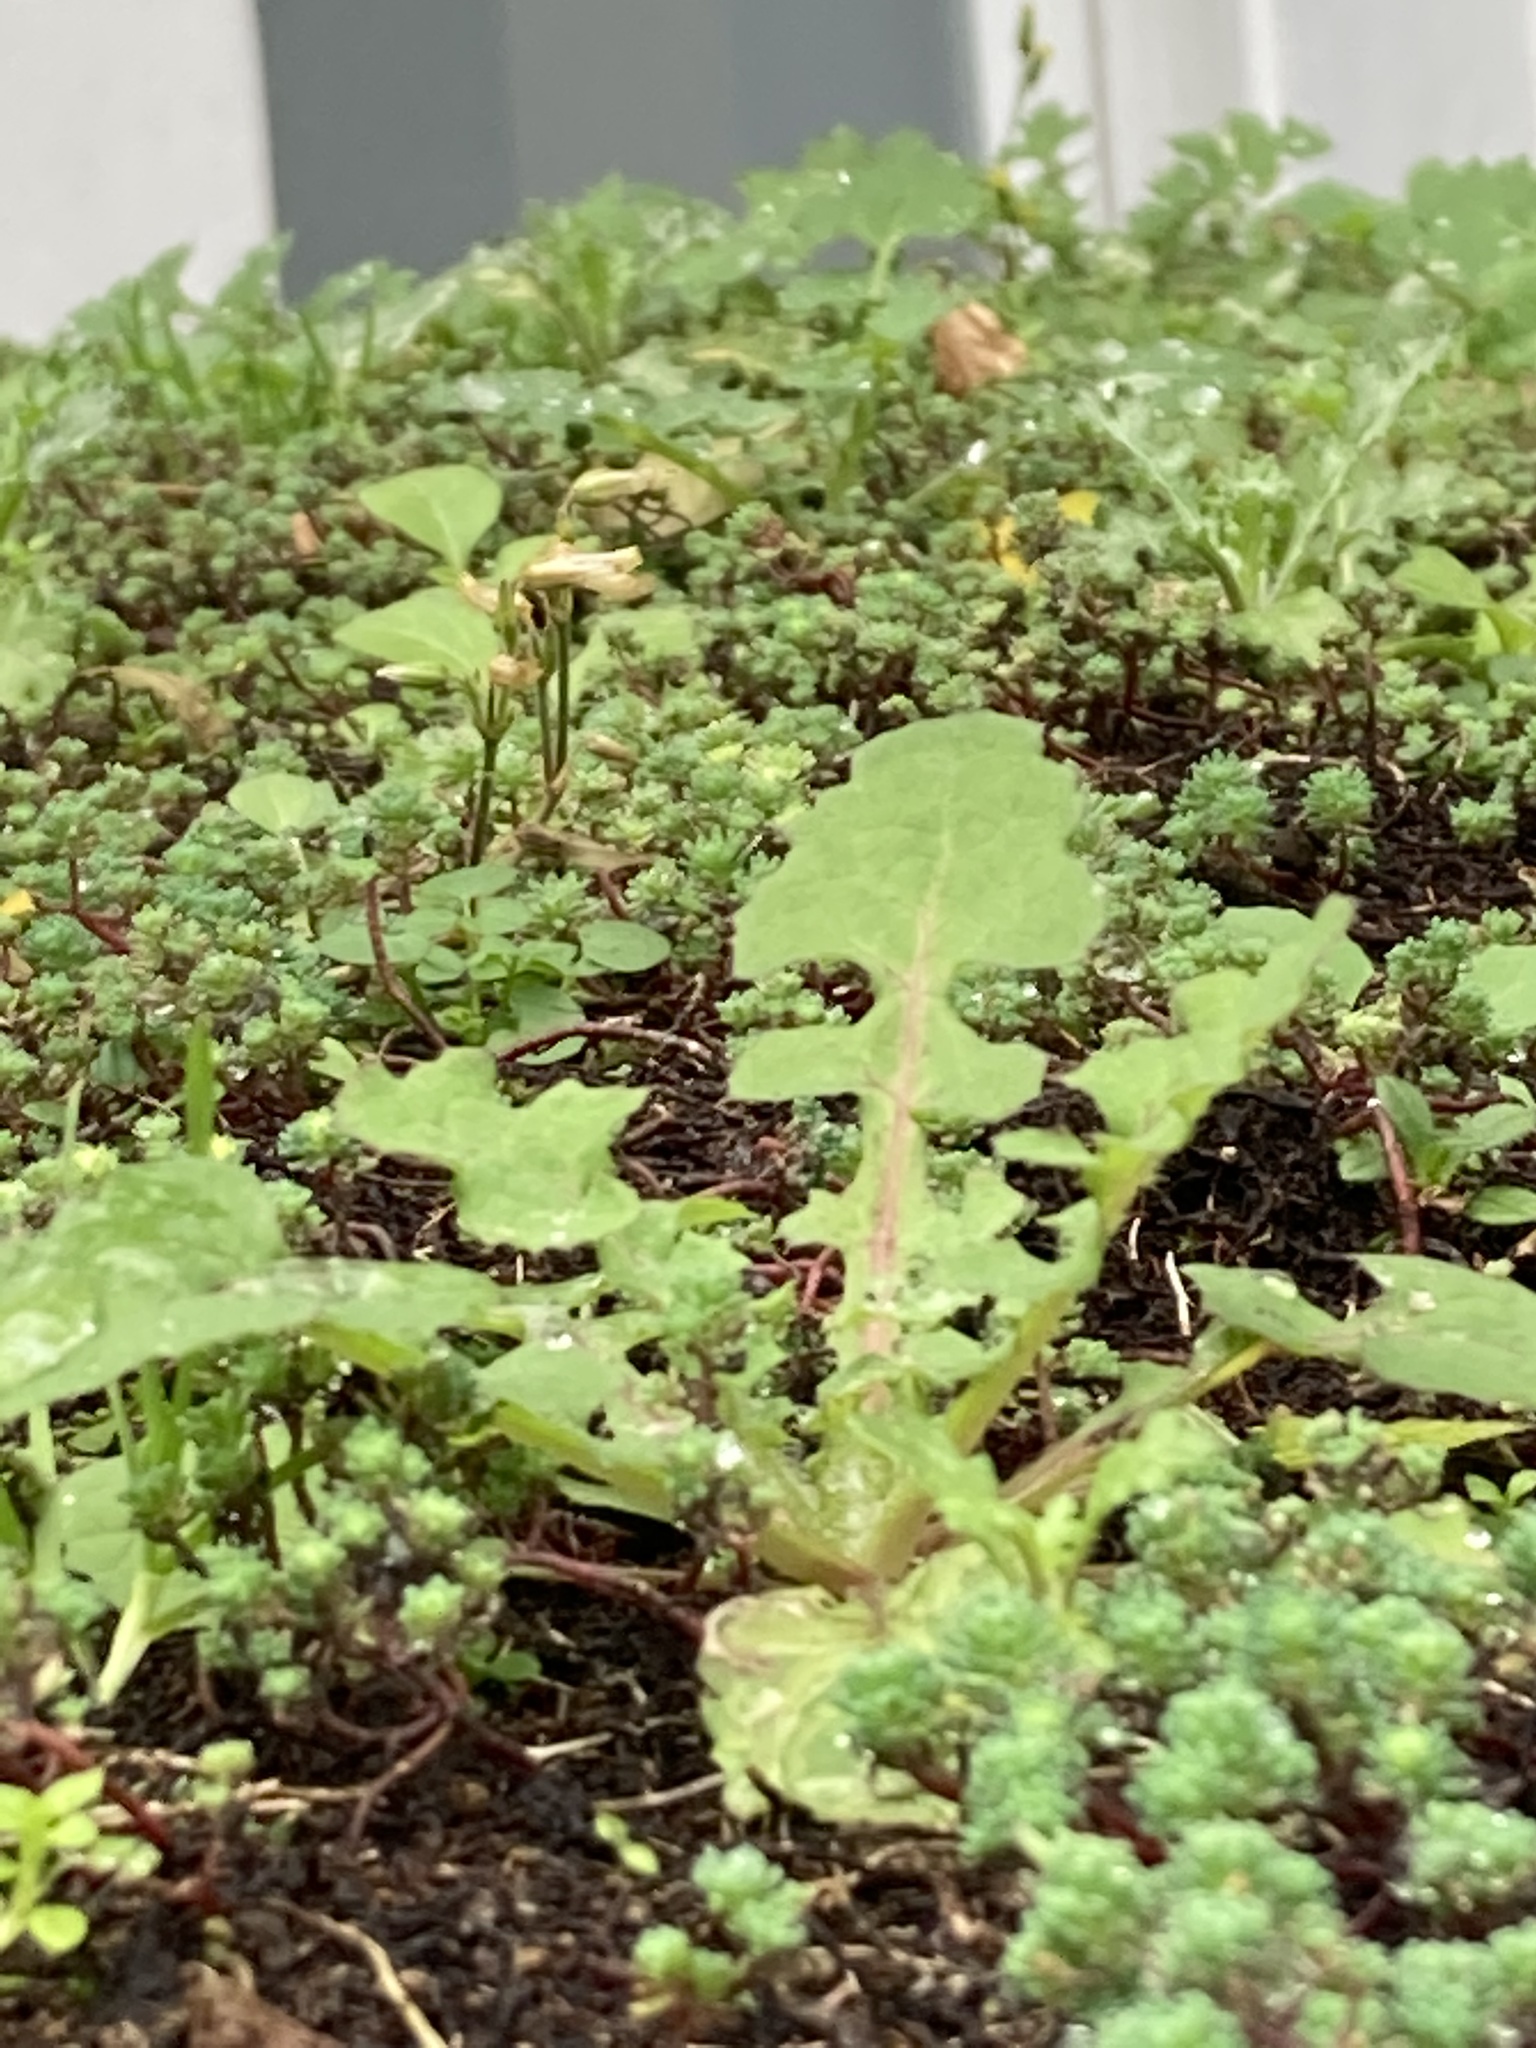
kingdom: Plantae
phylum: Tracheophyta
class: Magnoliopsida
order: Asterales
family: Asteraceae
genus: Taraxacum
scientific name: Taraxacum officinale
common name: Common dandelion
